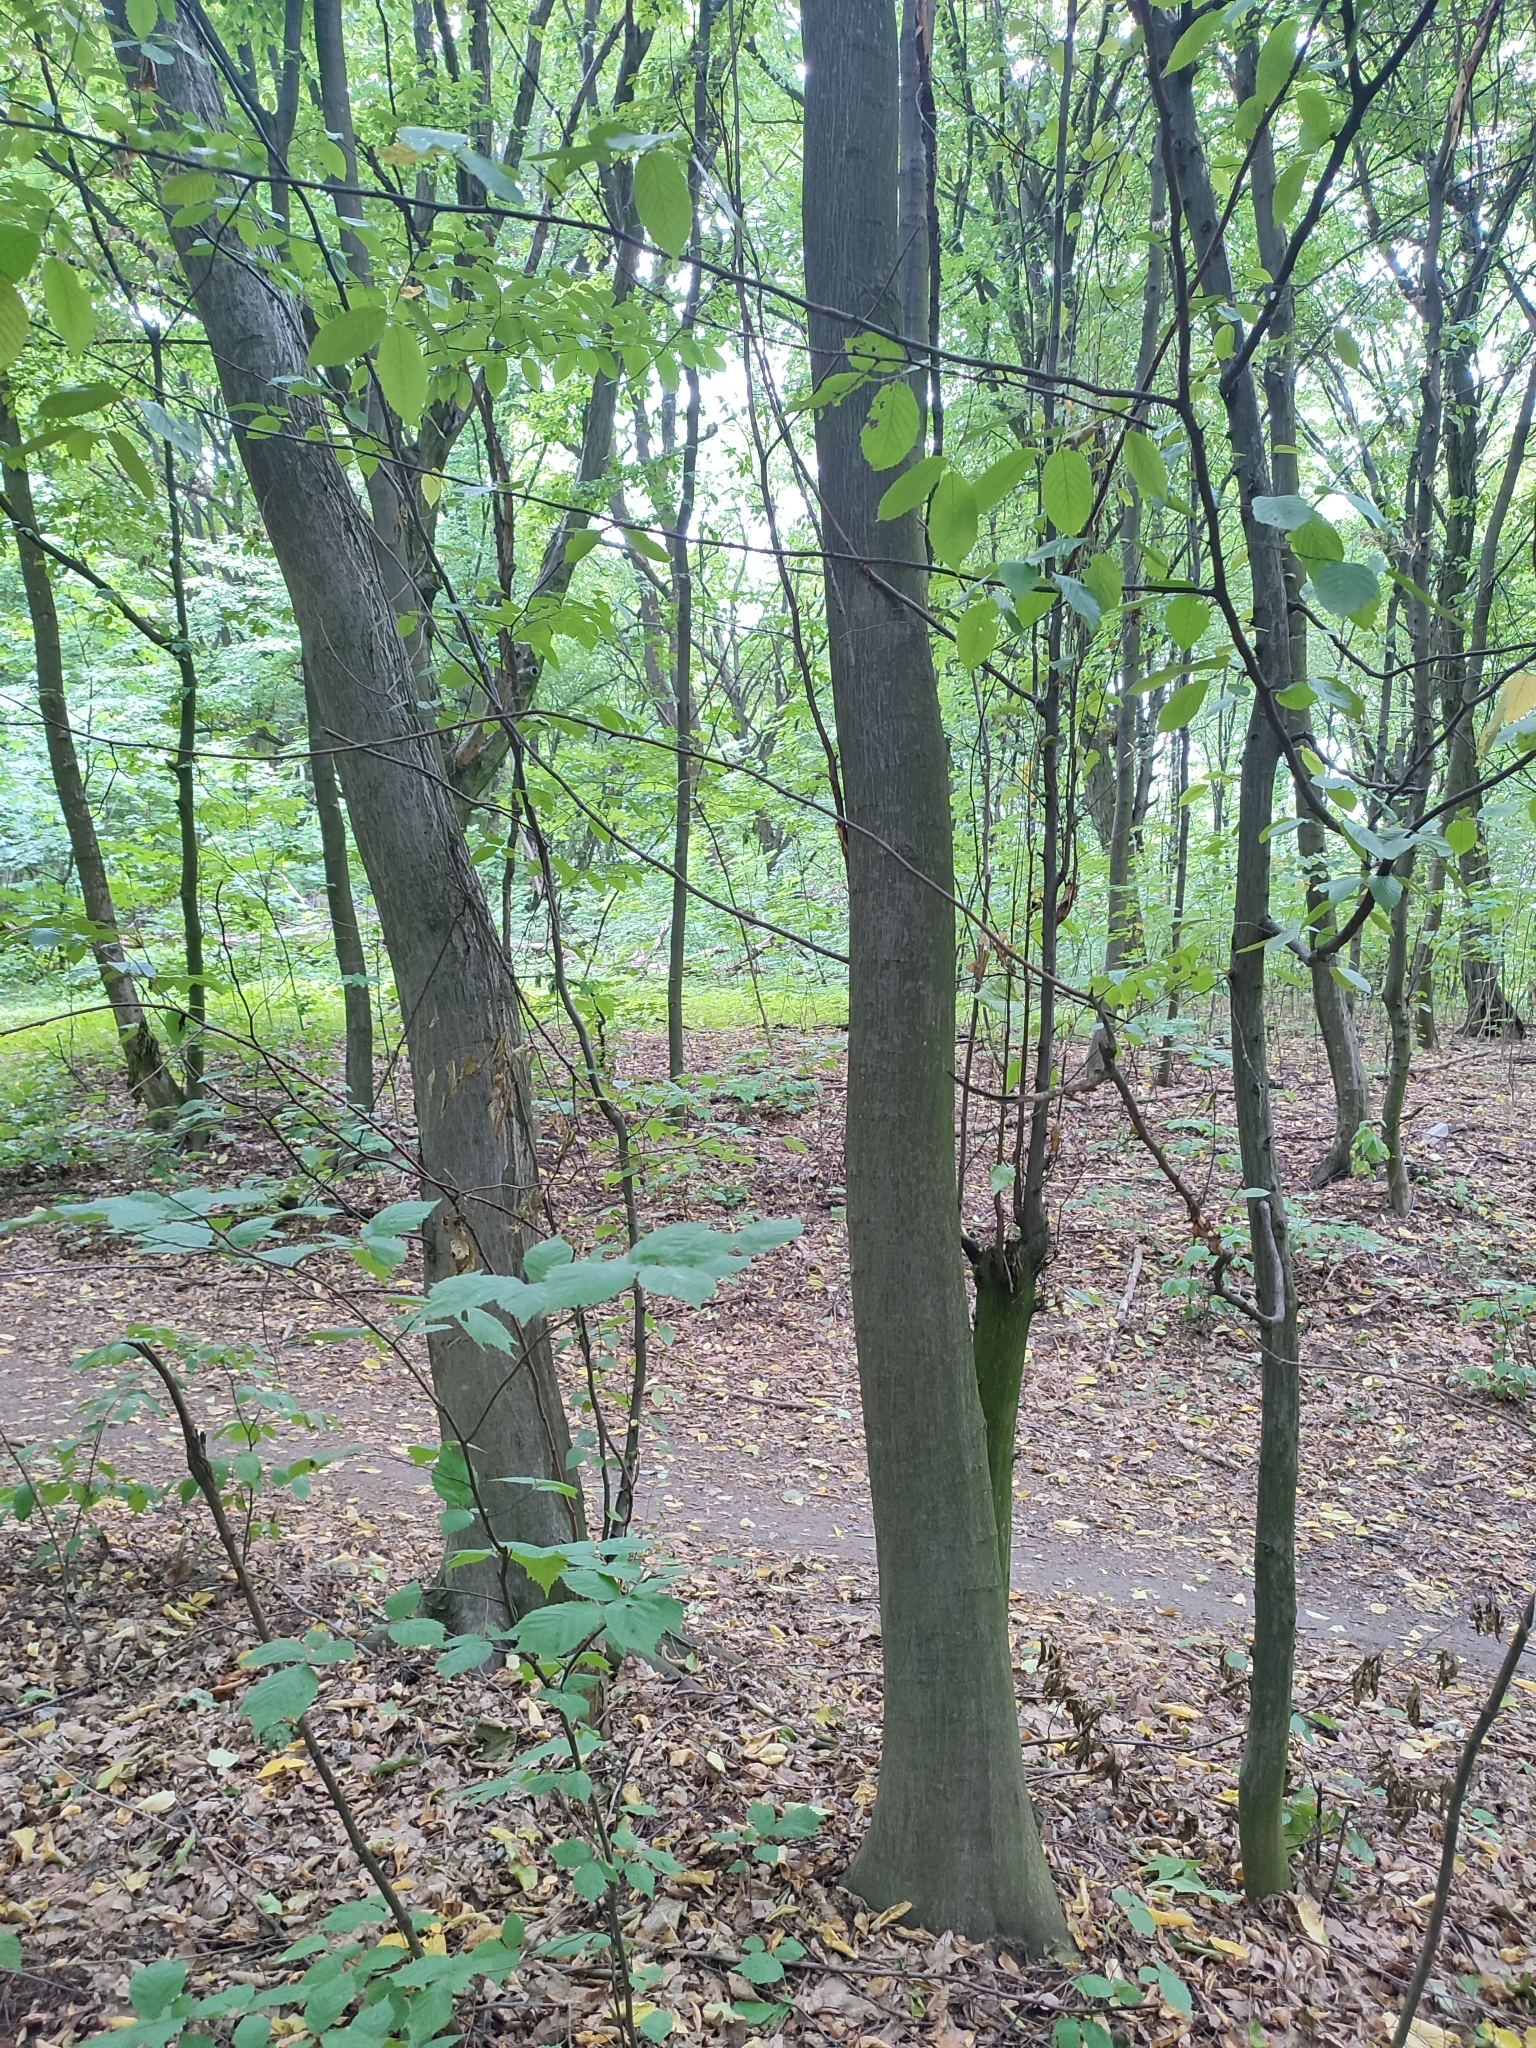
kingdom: Plantae
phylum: Tracheophyta
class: Magnoliopsida
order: Fagales
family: Betulaceae
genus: Carpinus
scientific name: Carpinus betulus
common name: Hornbeam
